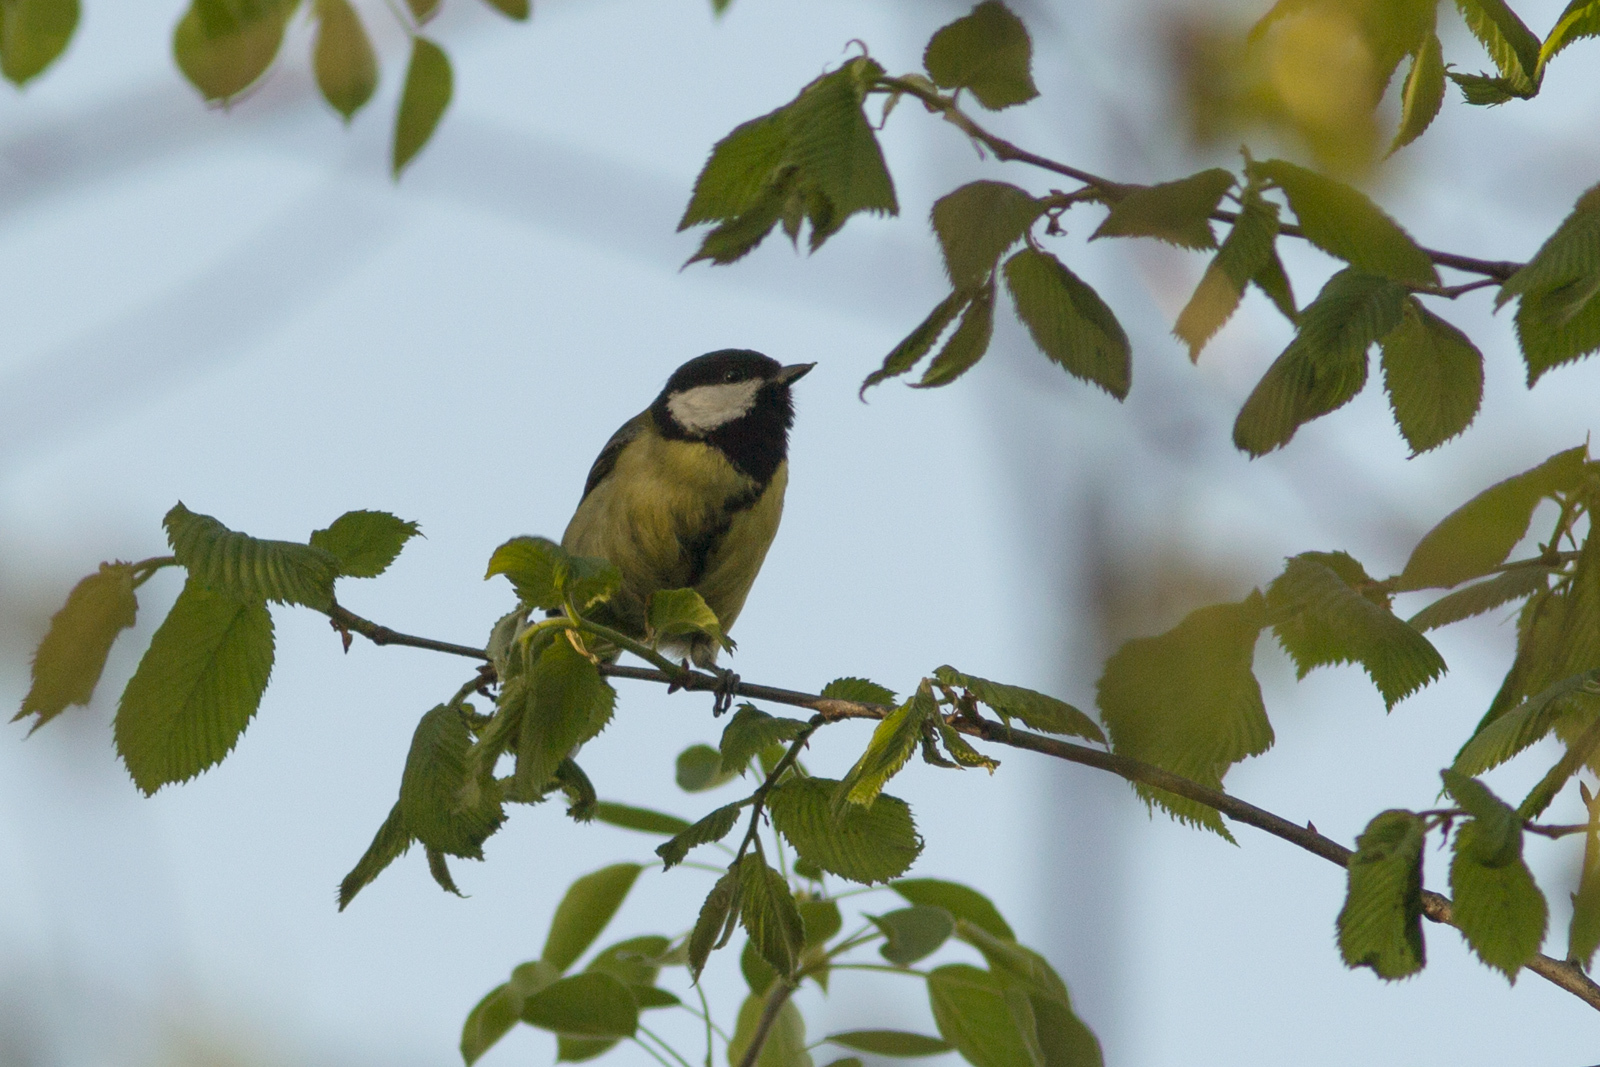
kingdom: Animalia
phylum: Chordata
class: Aves
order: Passeriformes
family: Paridae
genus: Parus
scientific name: Parus major
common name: Great tit
